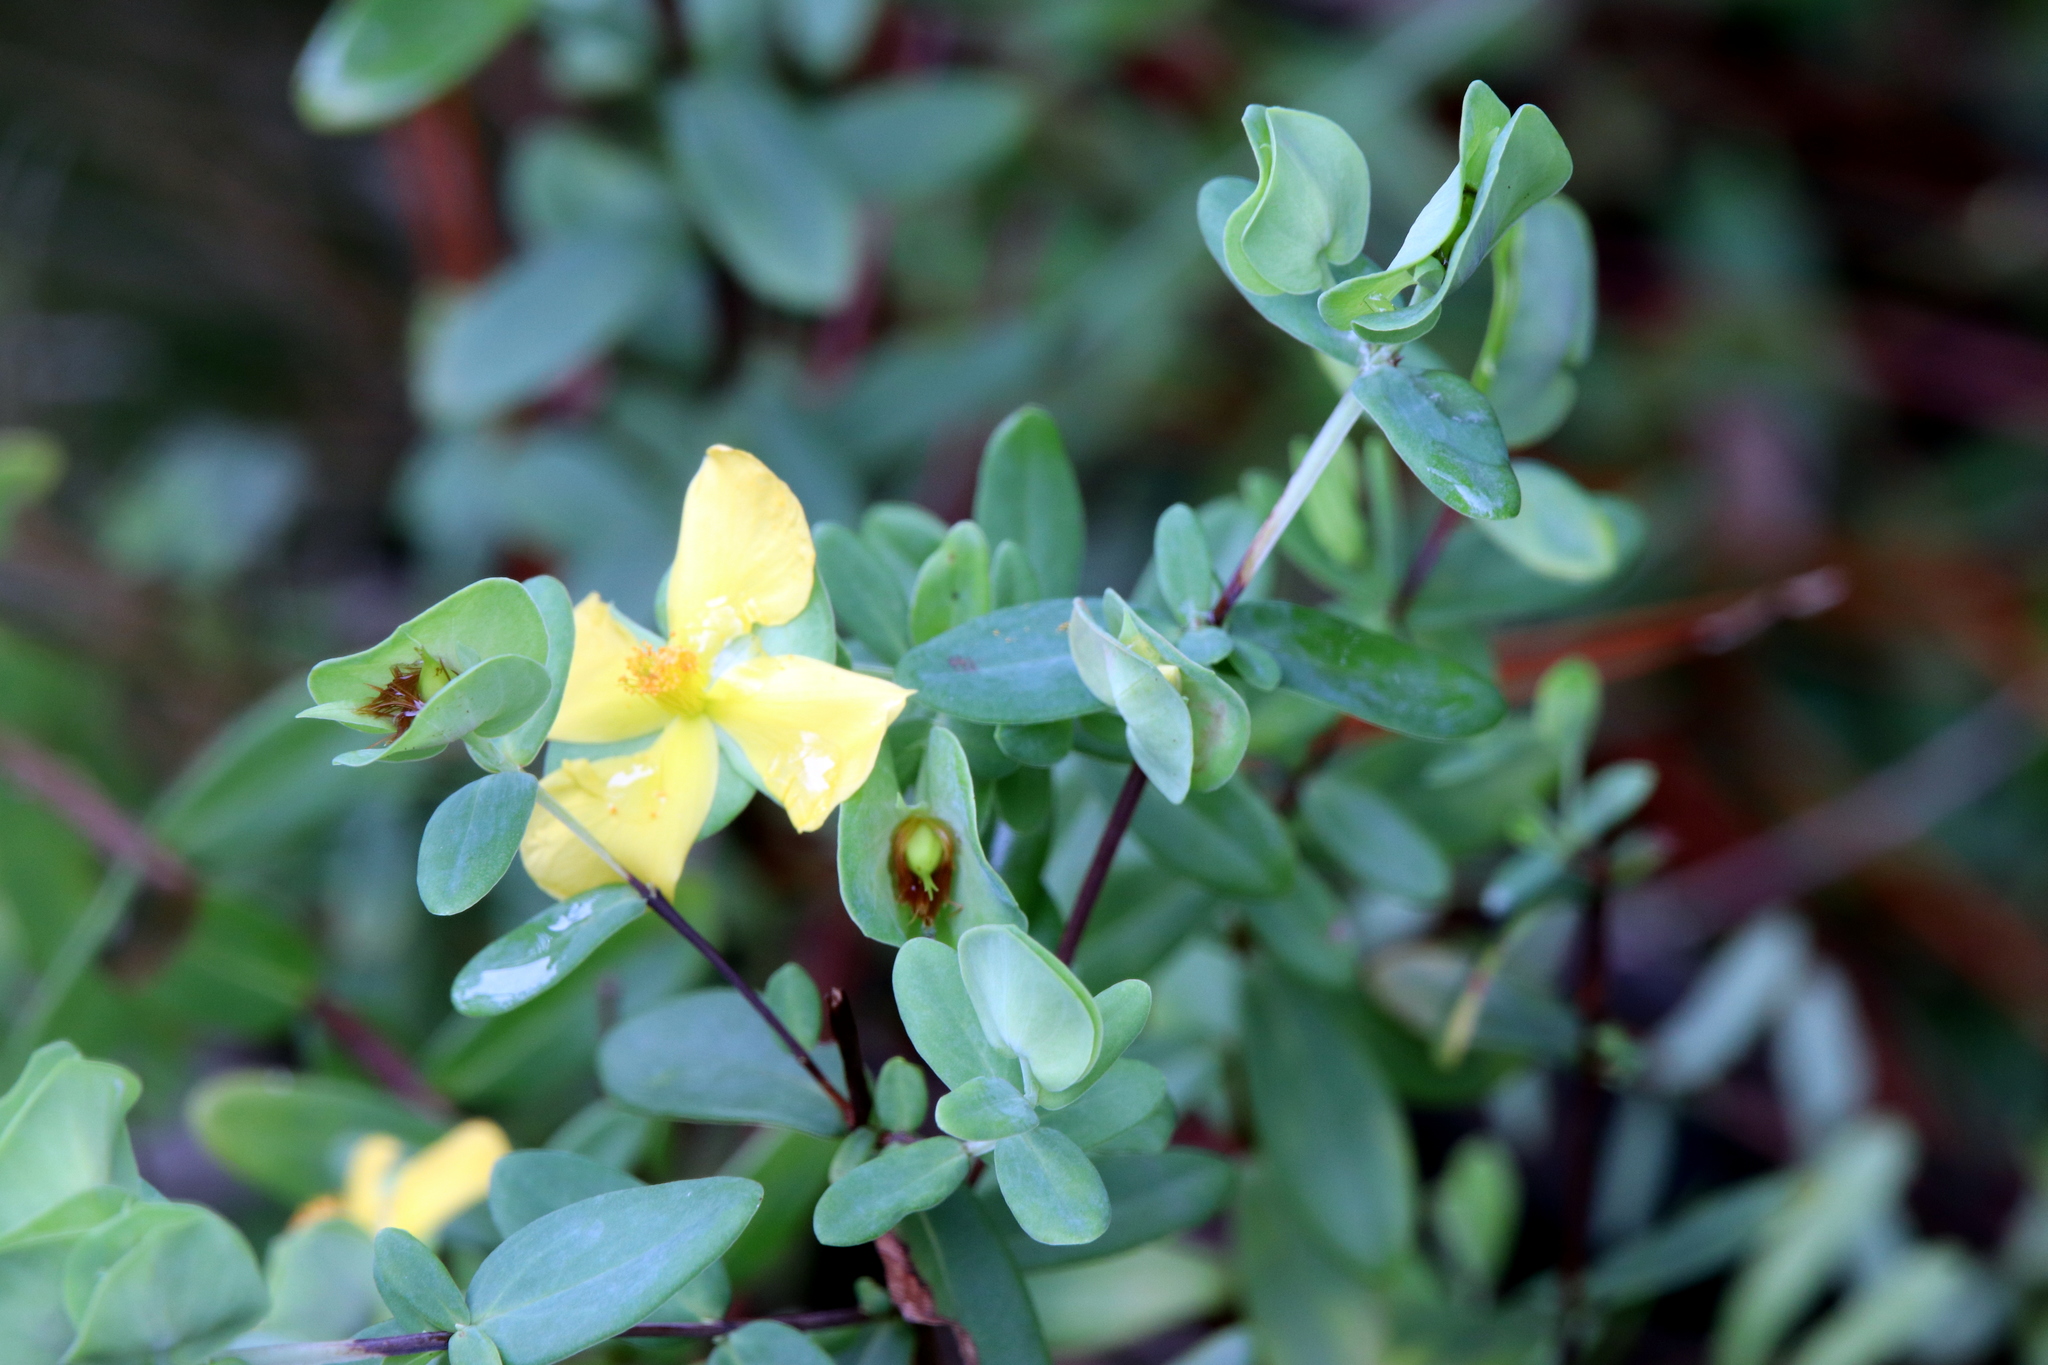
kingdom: Plantae
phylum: Tracheophyta
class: Magnoliopsida
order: Malpighiales
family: Hypericaceae
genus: Hypericum
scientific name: Hypericum hypericoides
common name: St. andrew's cross
